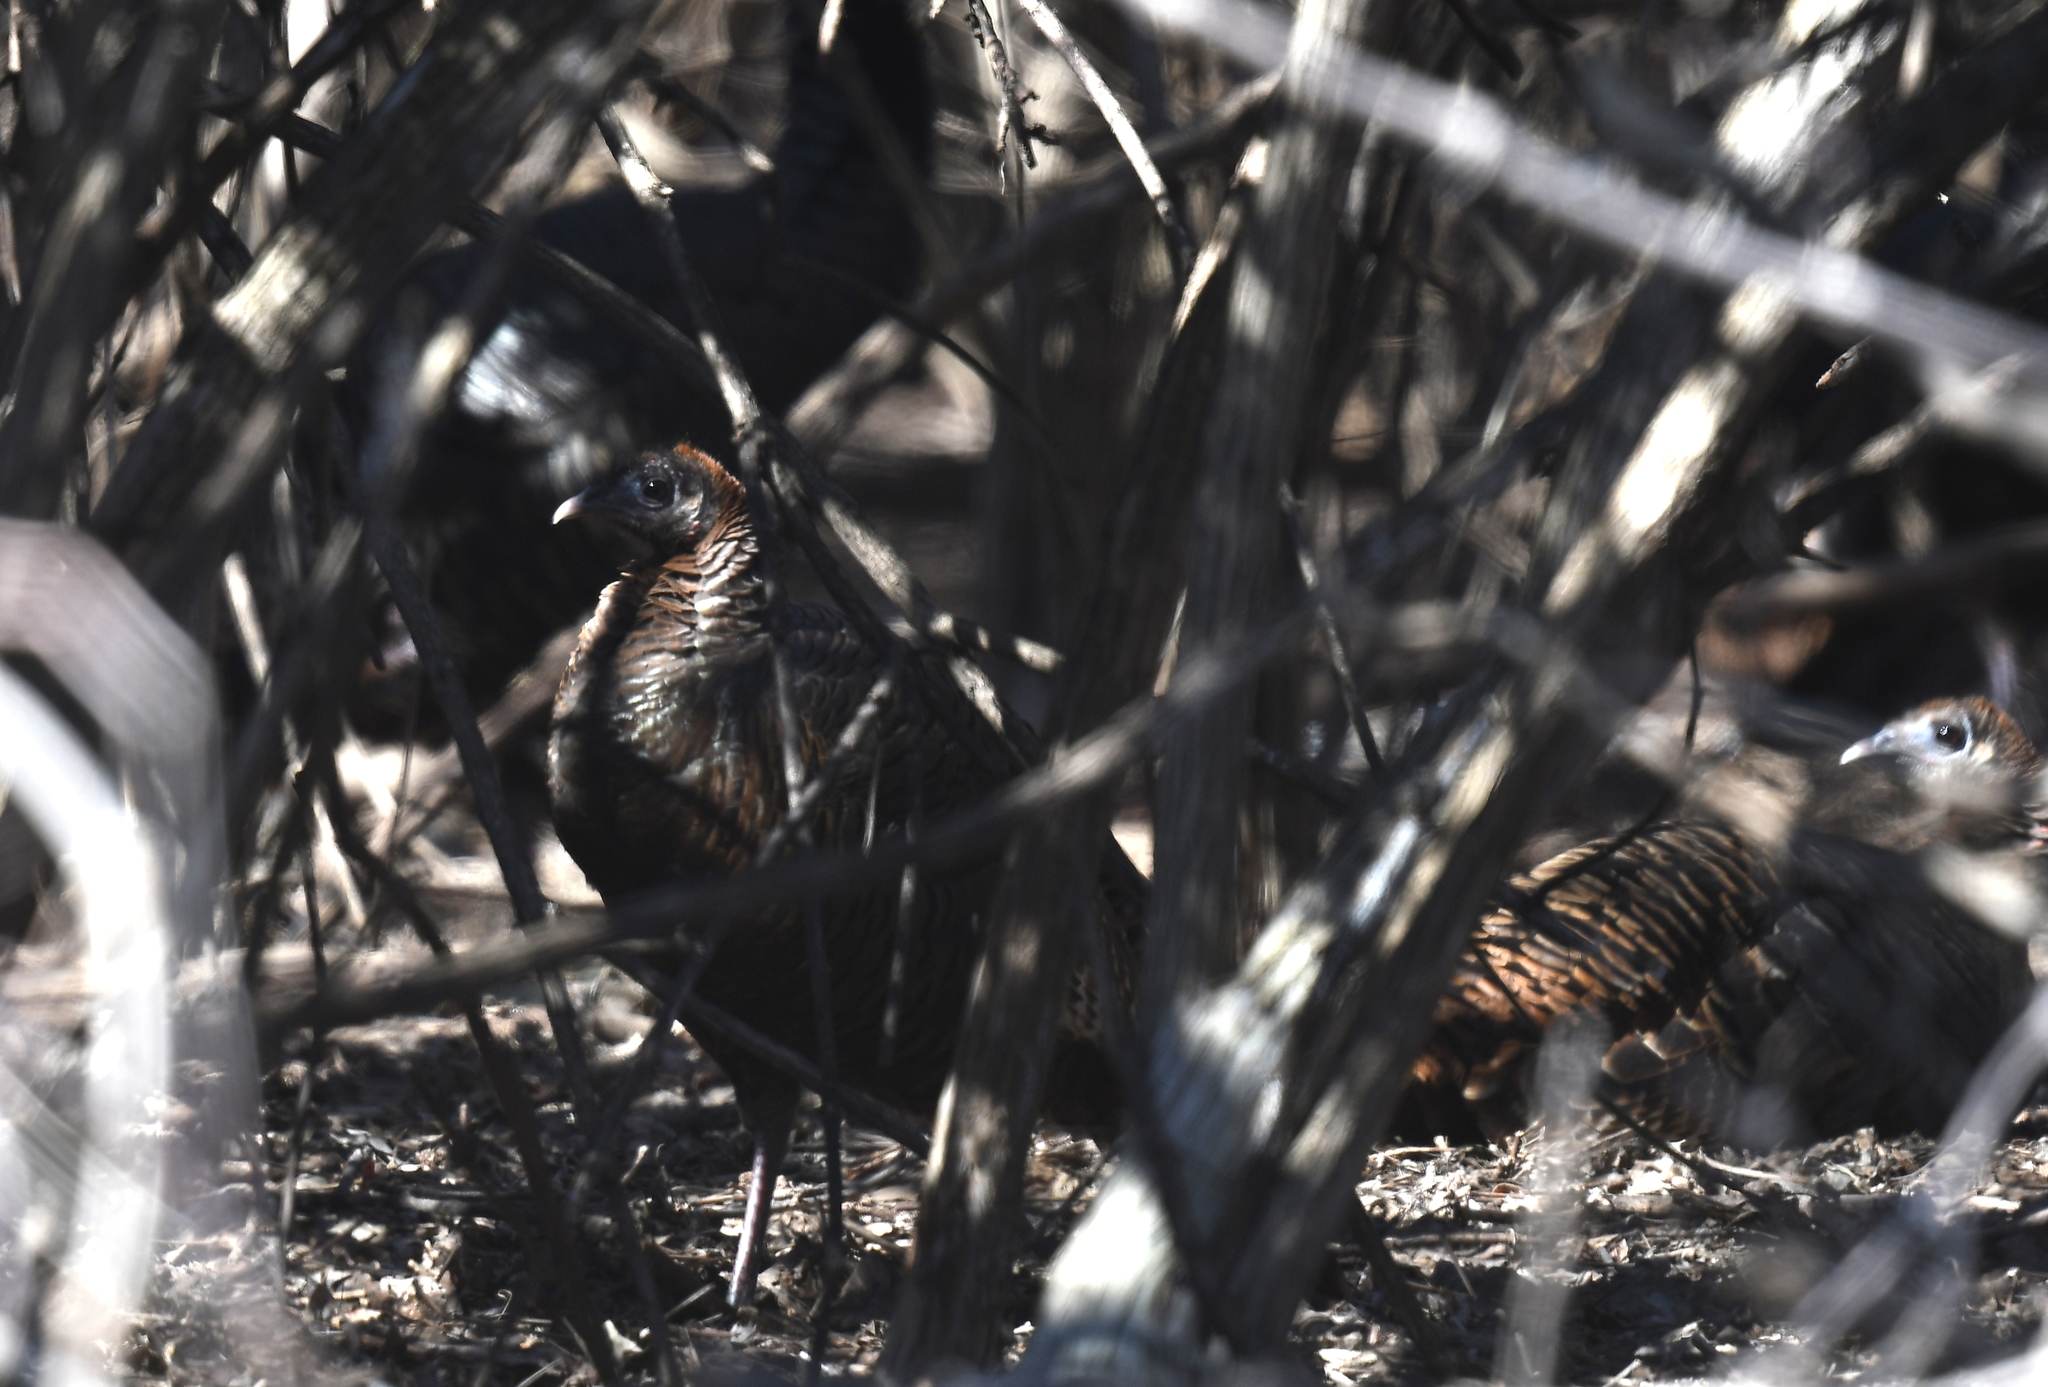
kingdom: Animalia
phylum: Chordata
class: Aves
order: Galliformes
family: Phasianidae
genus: Meleagris
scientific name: Meleagris gallopavo
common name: Wild turkey
